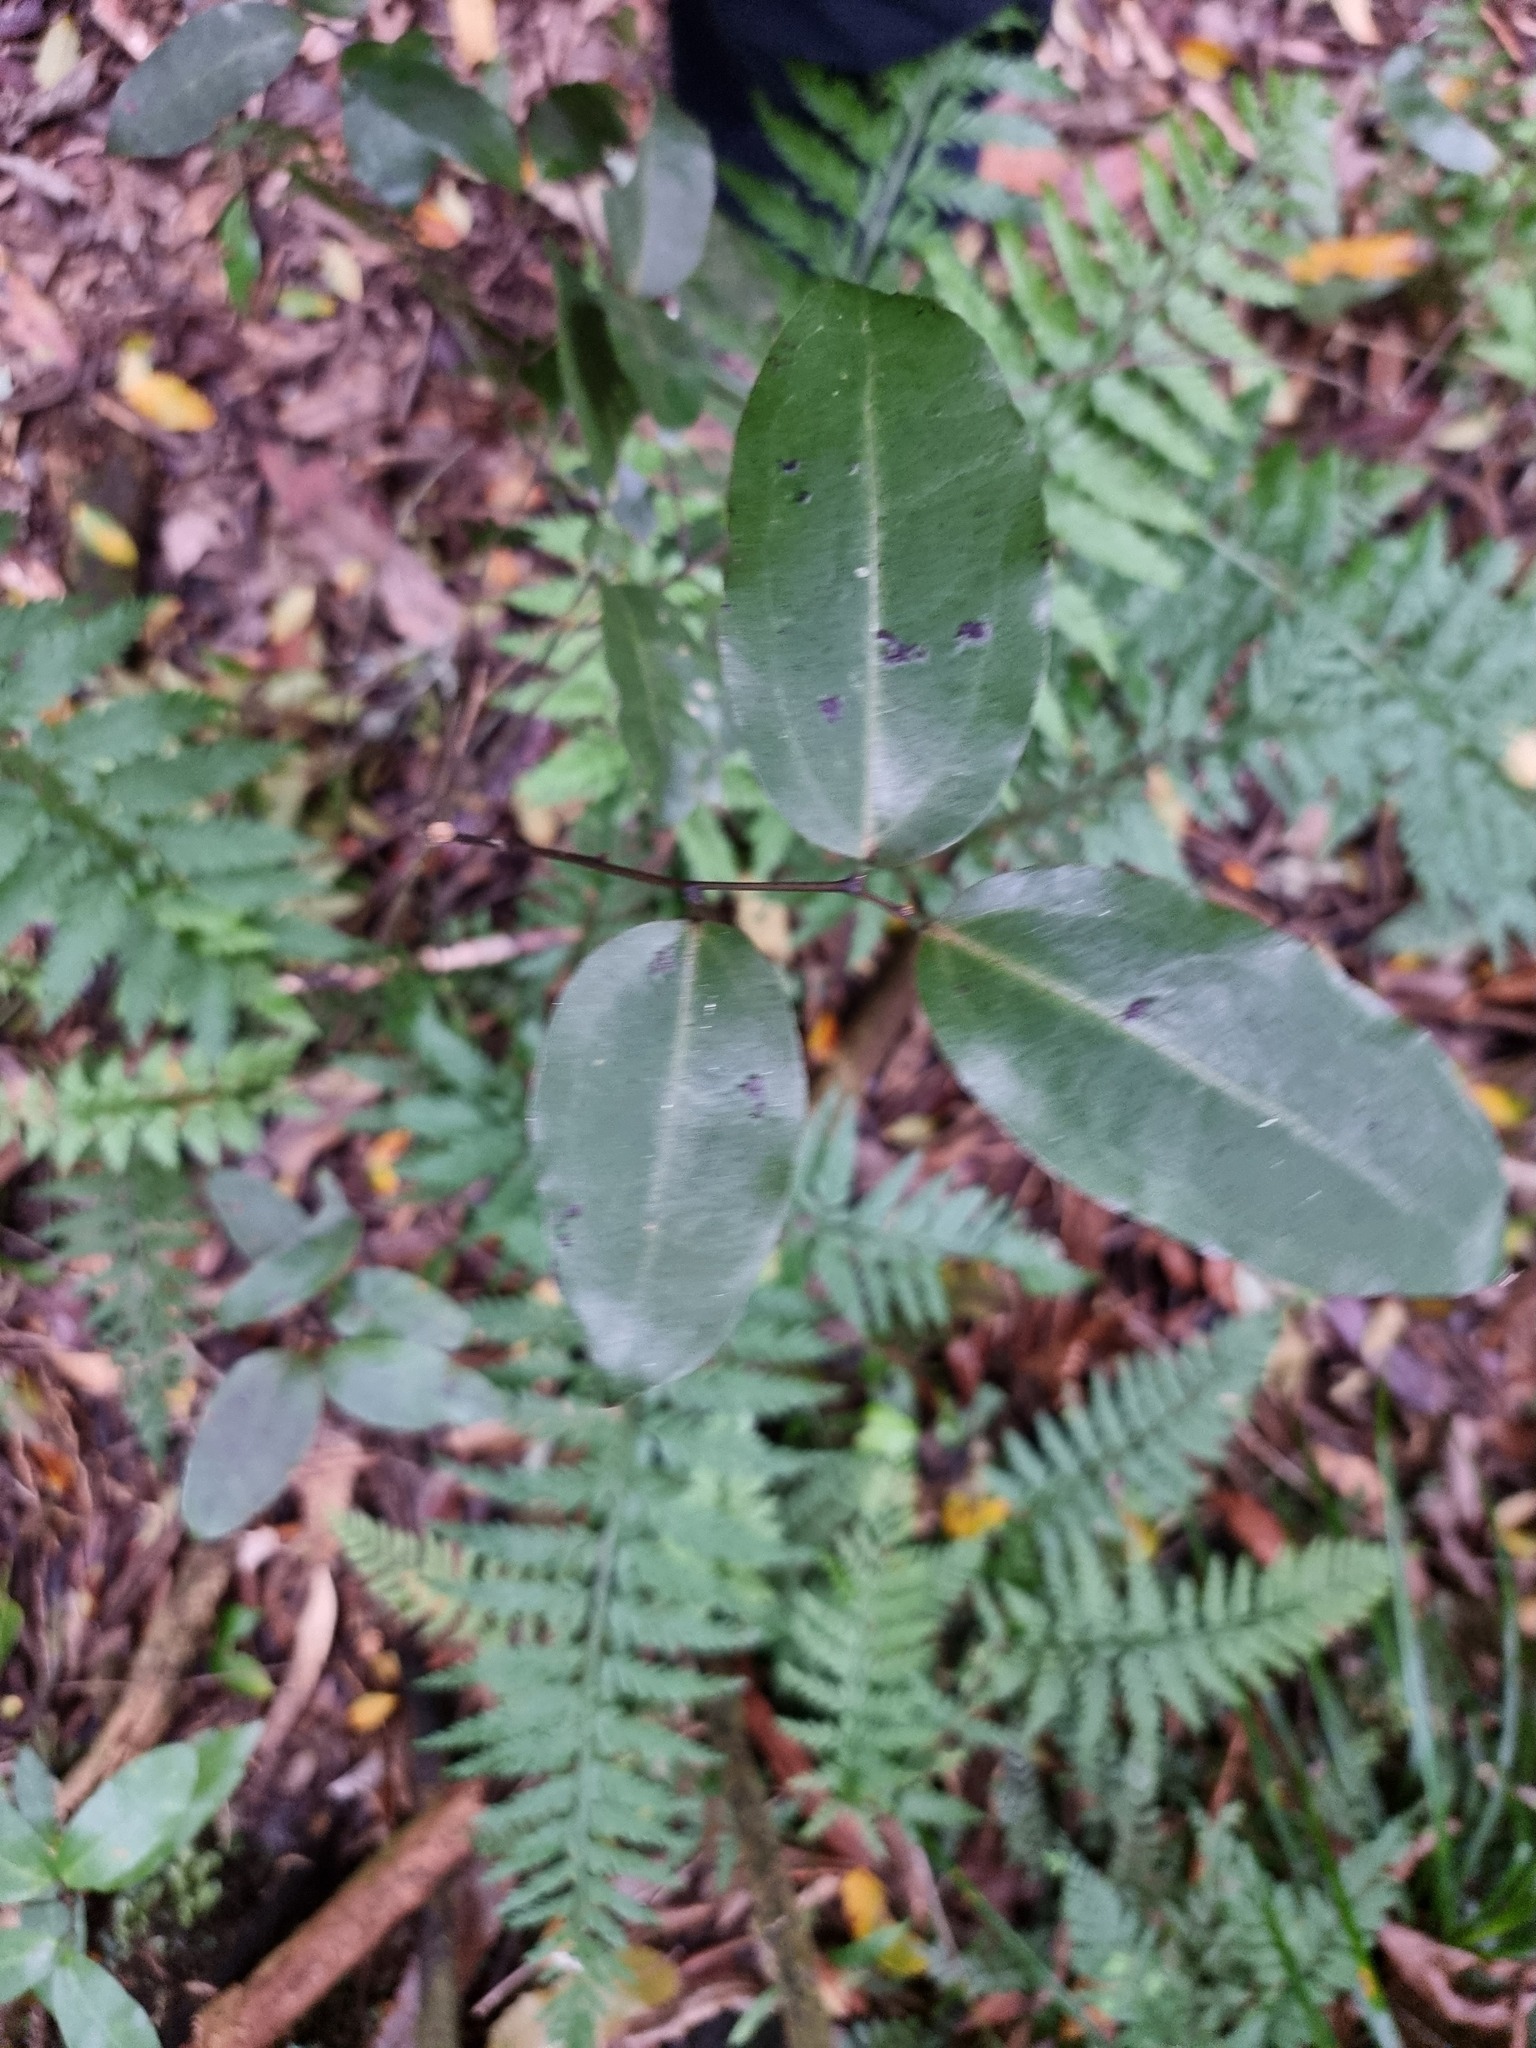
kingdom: Plantae
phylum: Tracheophyta
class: Liliopsida
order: Liliales
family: Ripogonaceae
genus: Ripogonum
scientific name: Ripogonum scandens
